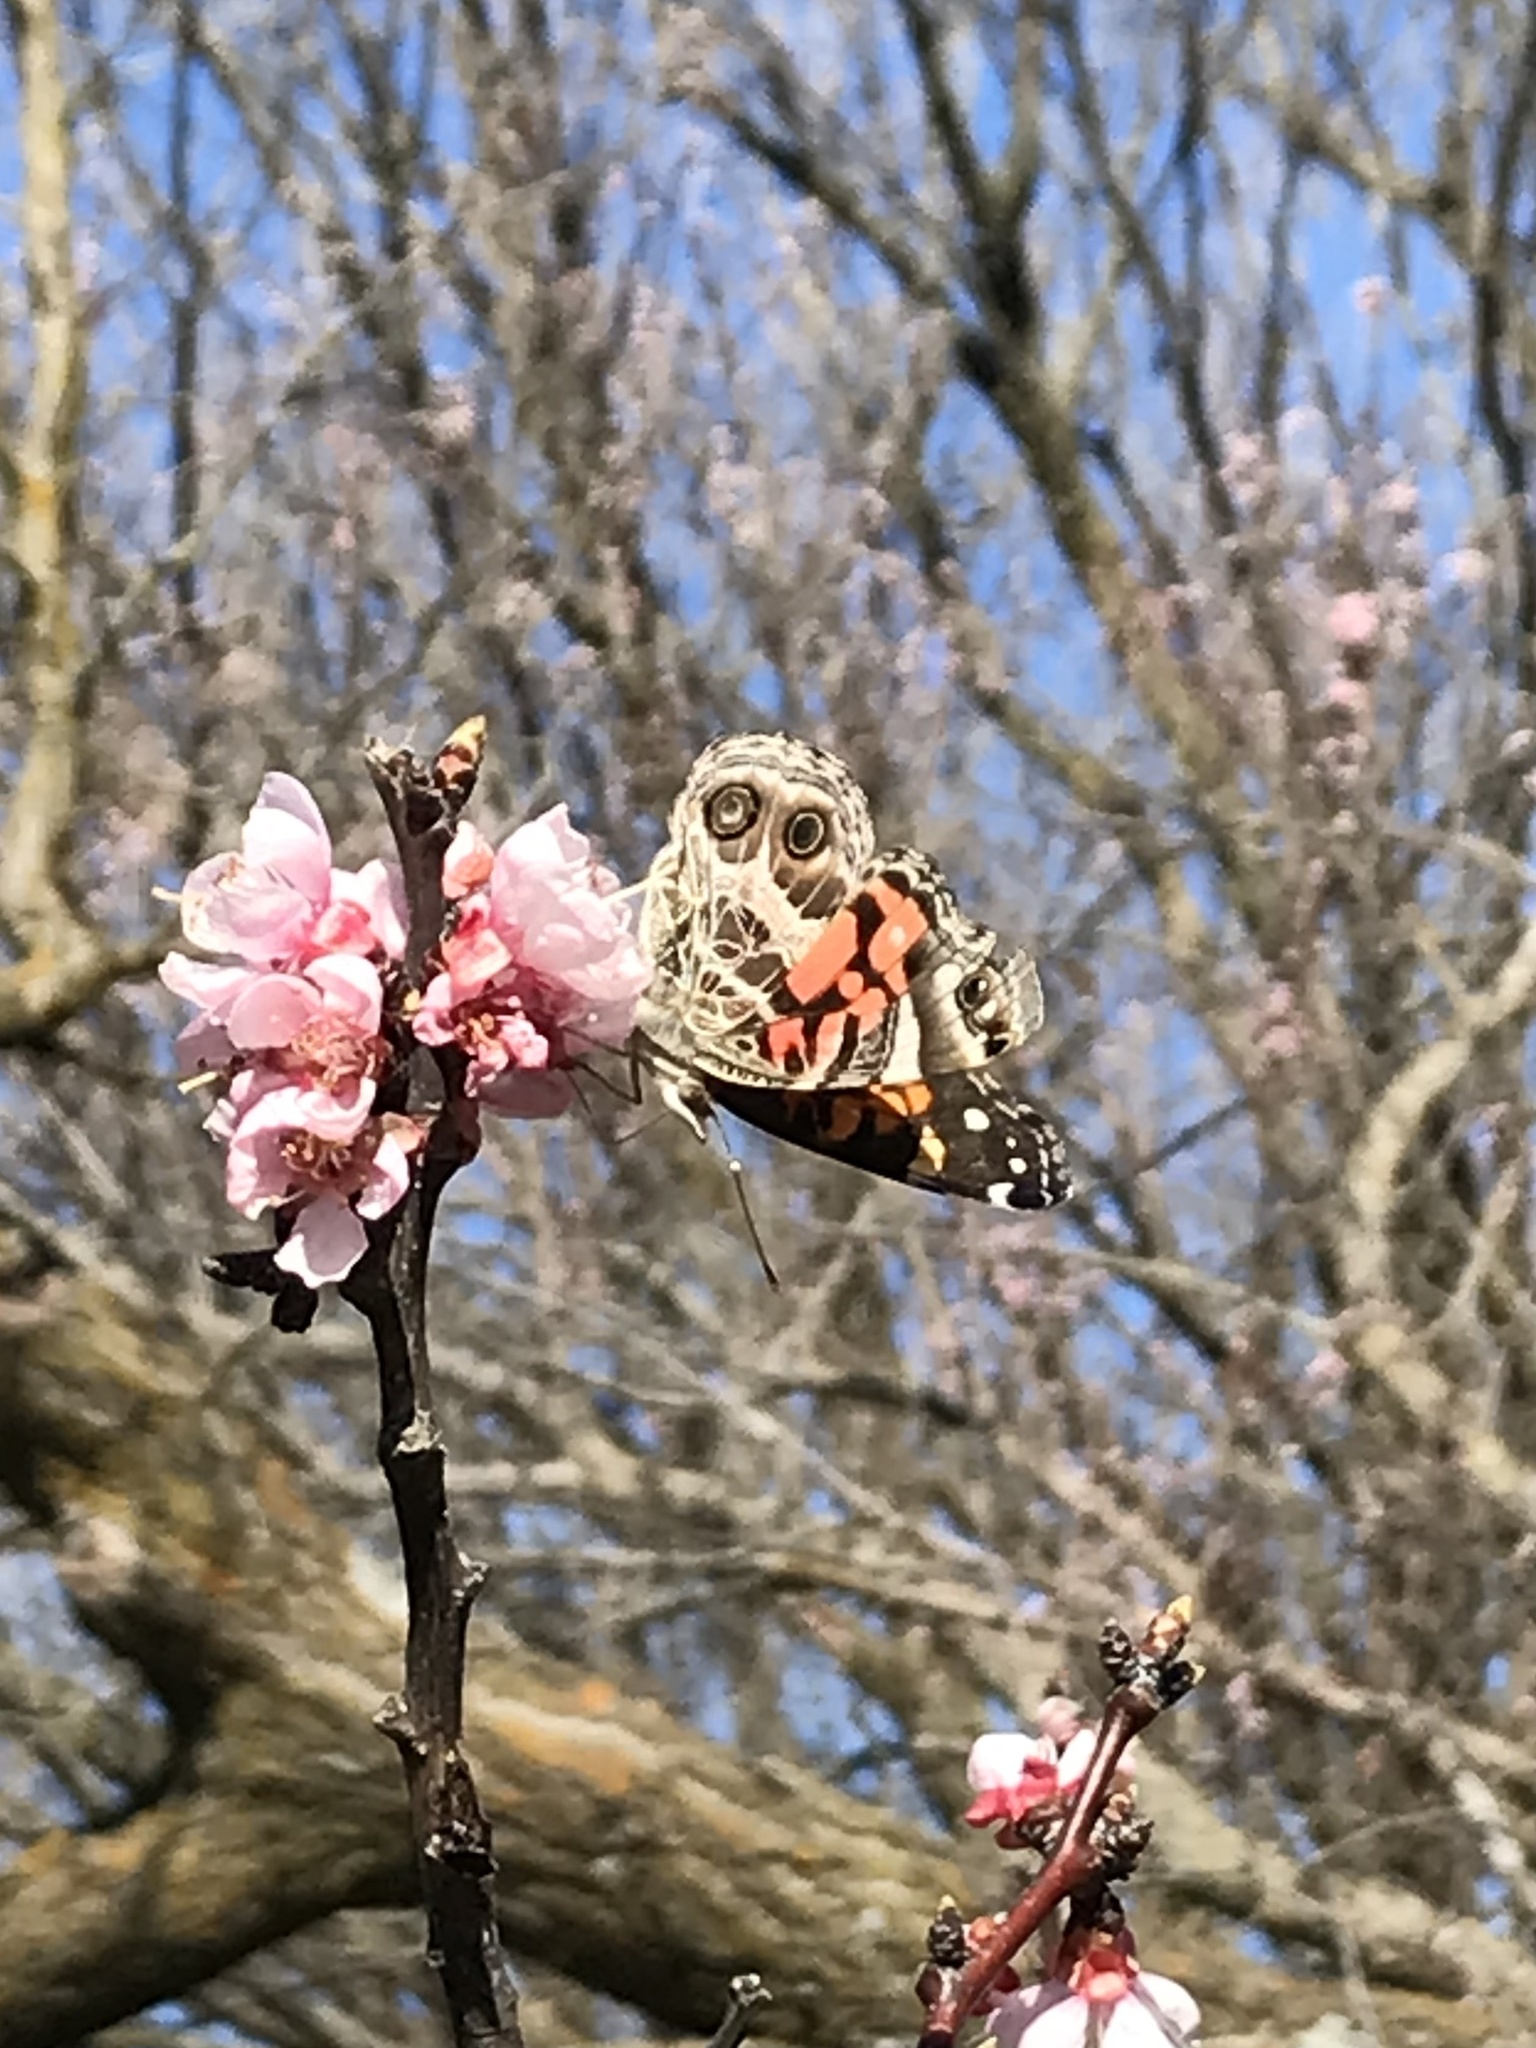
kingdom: Animalia
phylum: Arthropoda
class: Insecta
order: Lepidoptera
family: Nymphalidae
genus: Vanessa
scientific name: Vanessa virginiensis
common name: American lady
